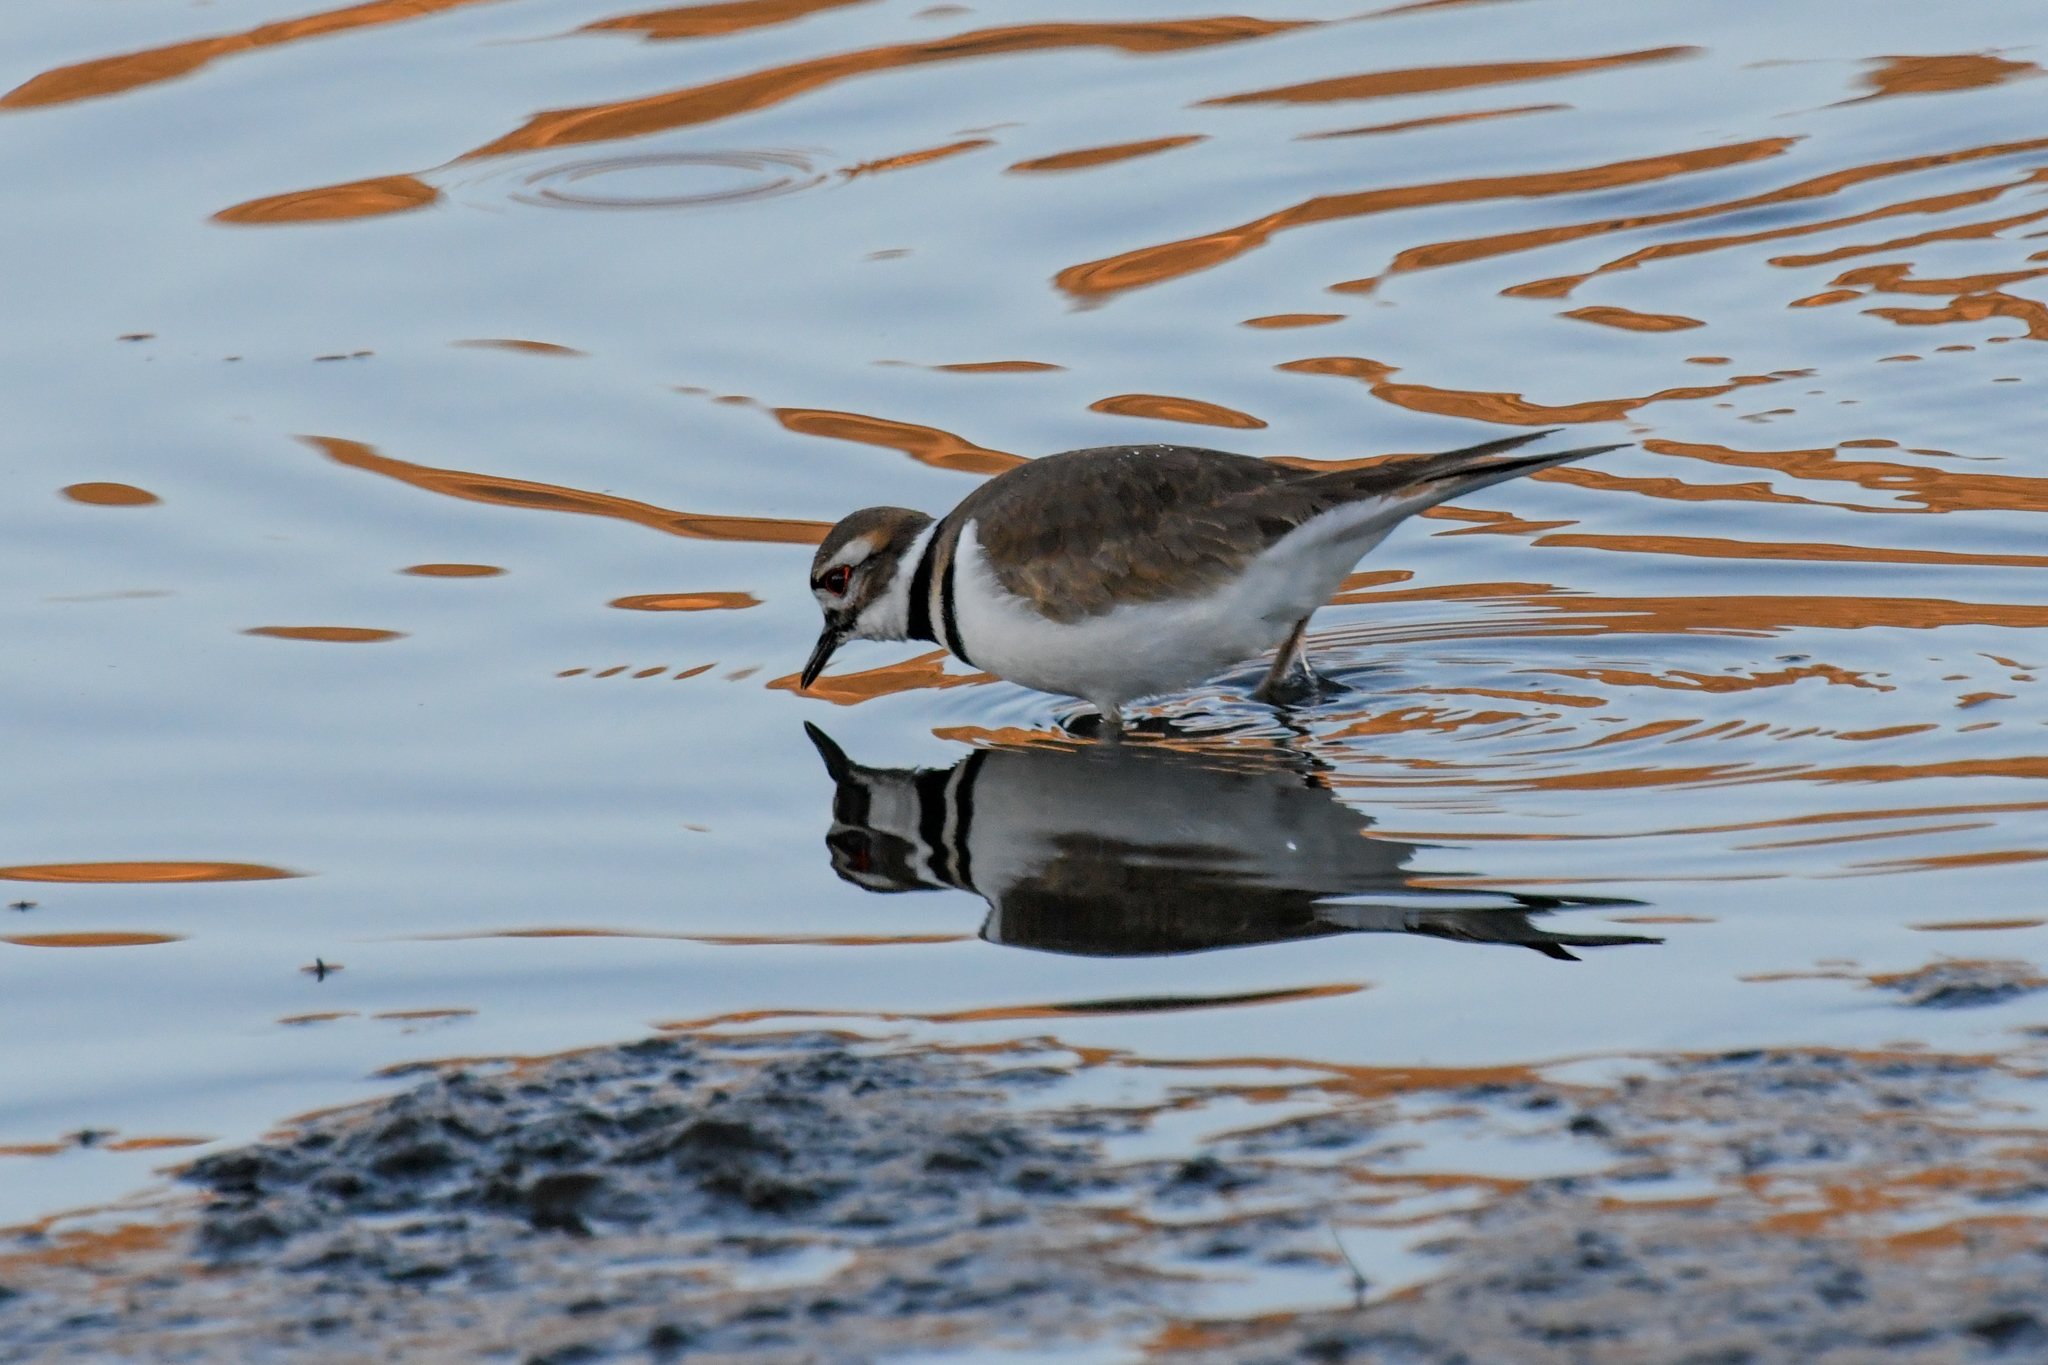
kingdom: Animalia
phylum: Chordata
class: Aves
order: Charadriiformes
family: Charadriidae
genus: Charadrius
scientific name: Charadrius vociferus
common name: Killdeer
